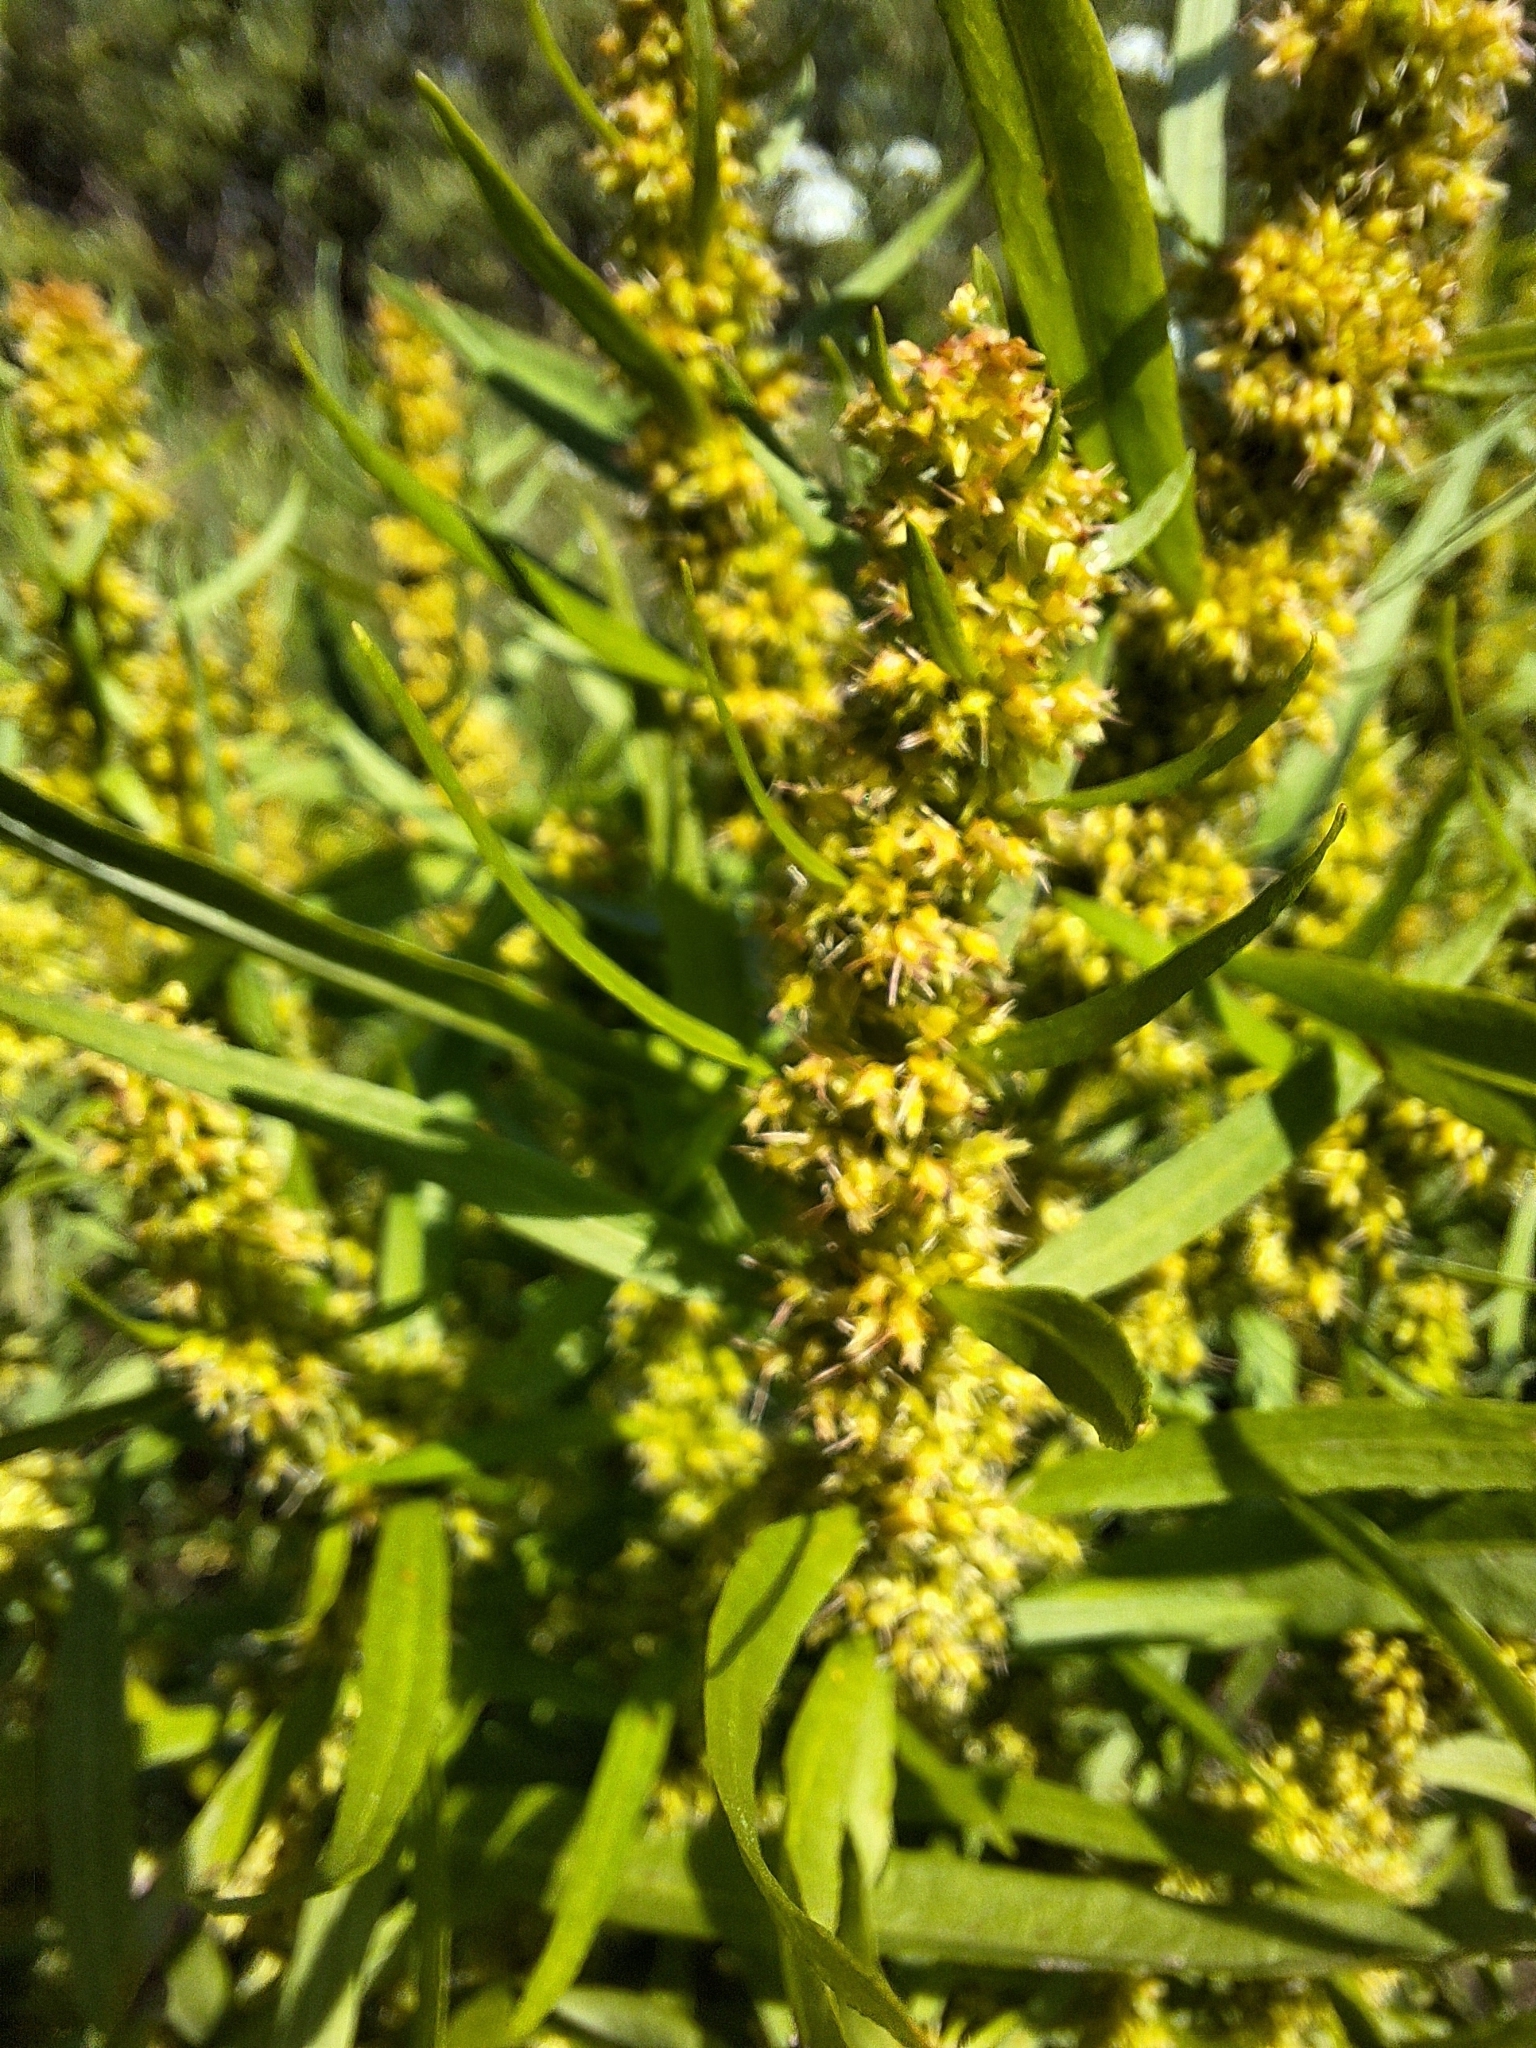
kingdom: Plantae
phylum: Tracheophyta
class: Magnoliopsida
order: Caryophyllales
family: Polygonaceae
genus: Rumex
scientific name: Rumex maritimus
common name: Golden dock
